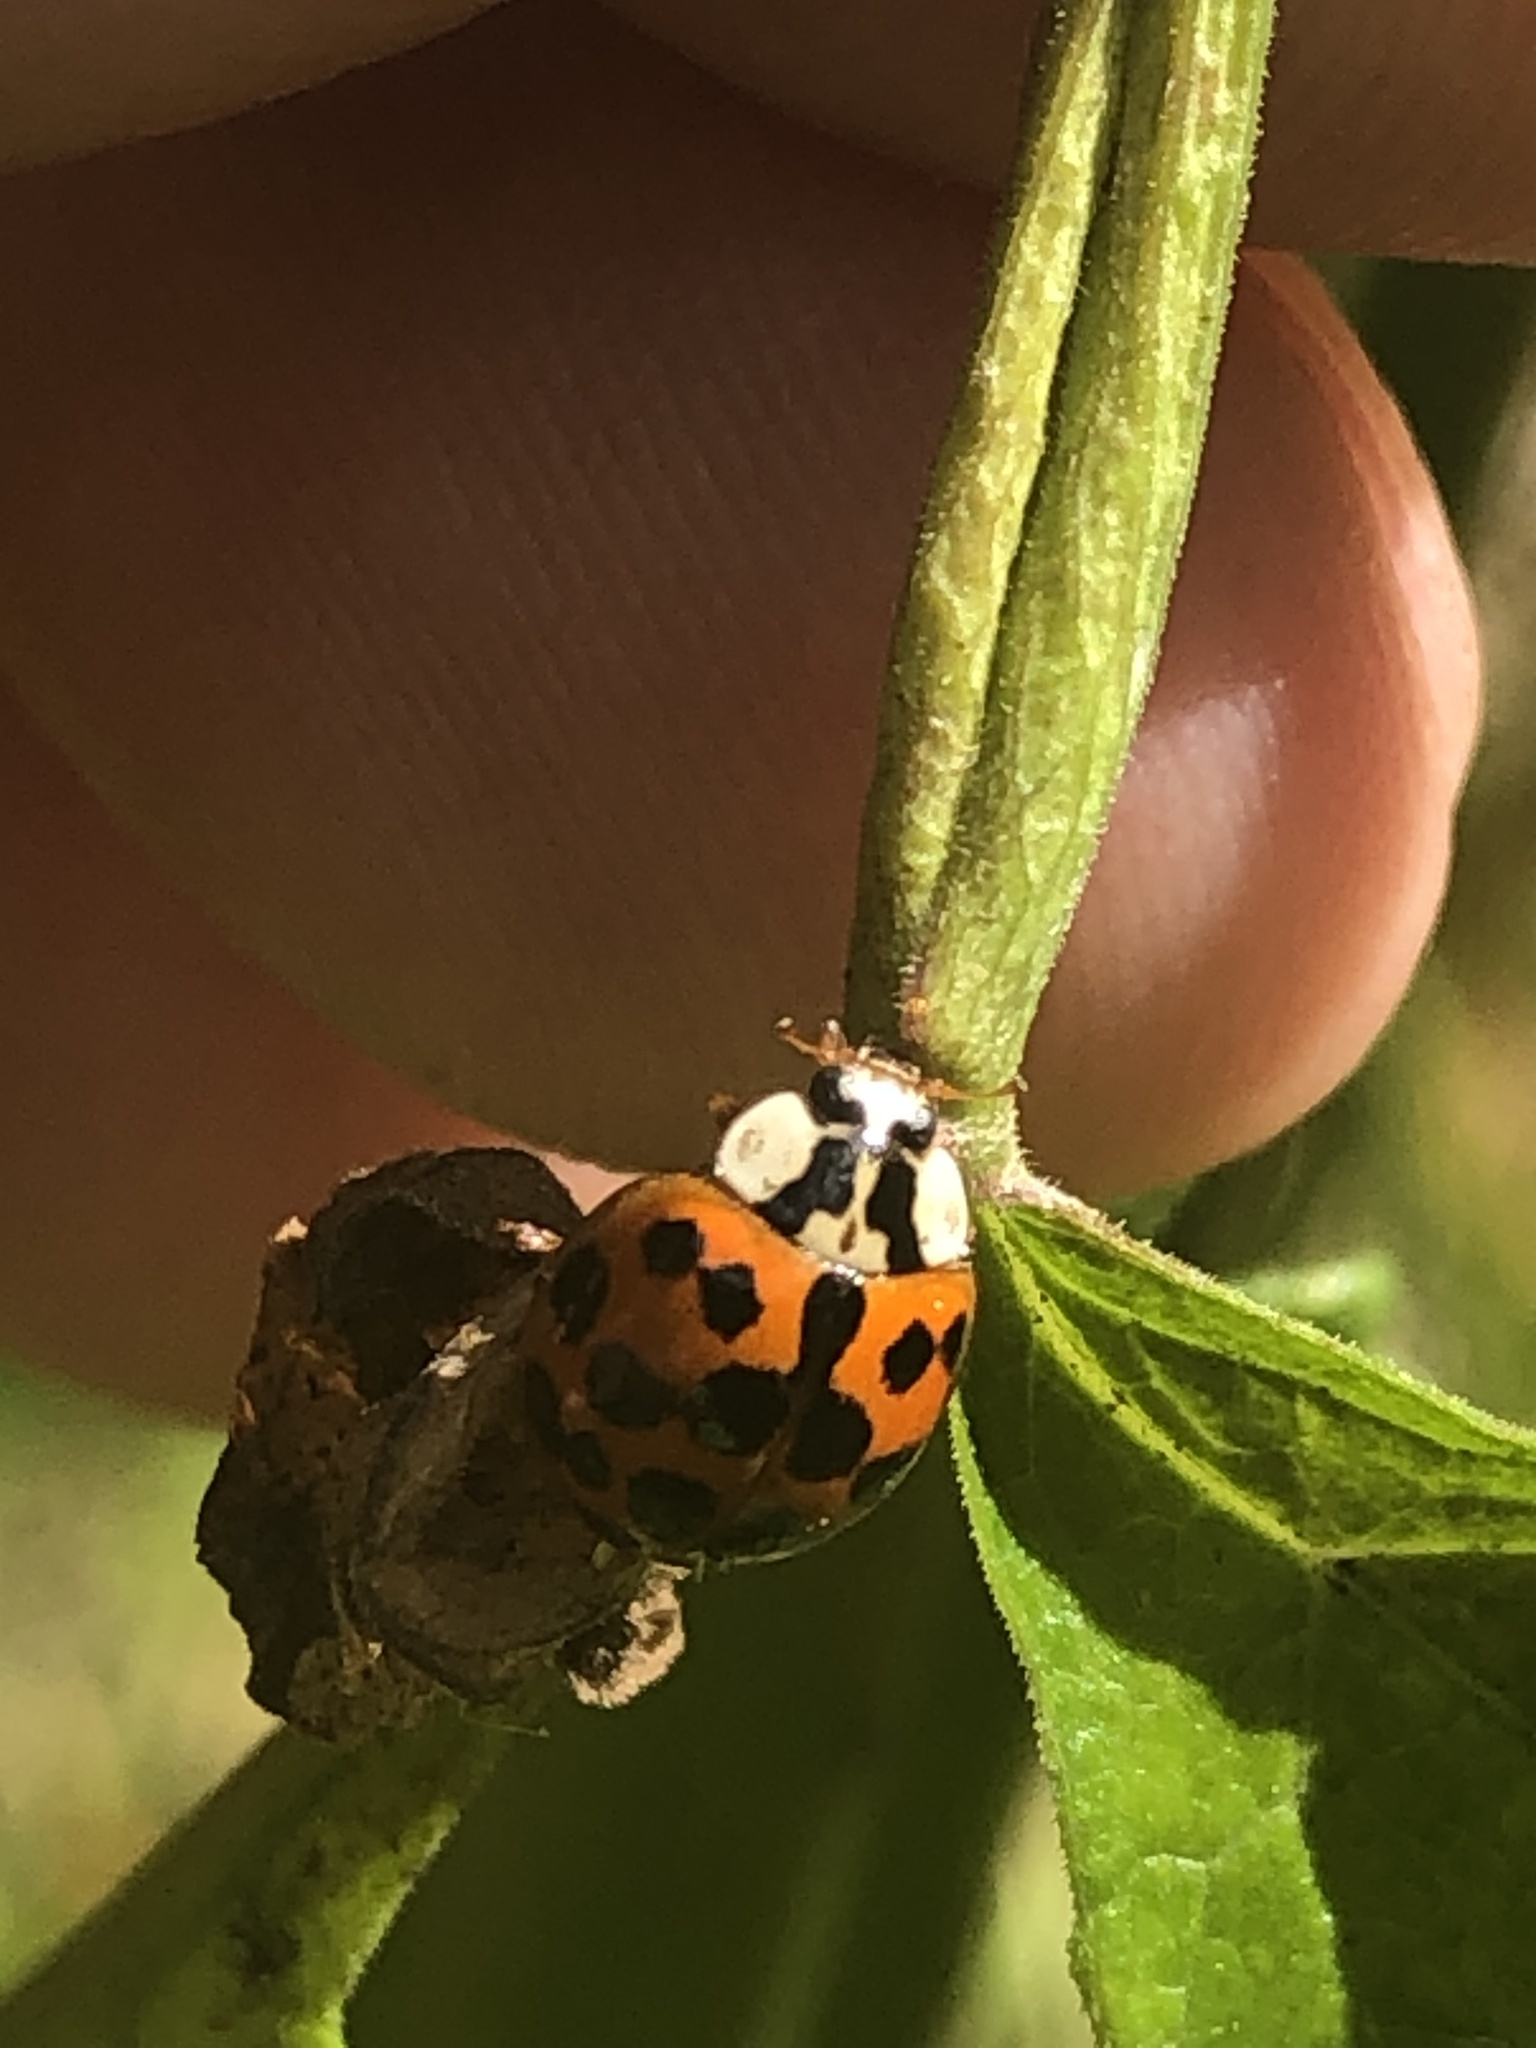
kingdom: Animalia
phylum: Arthropoda
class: Insecta
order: Coleoptera
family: Coccinellidae
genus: Harmonia
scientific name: Harmonia axyridis
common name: Harlequin ladybird
